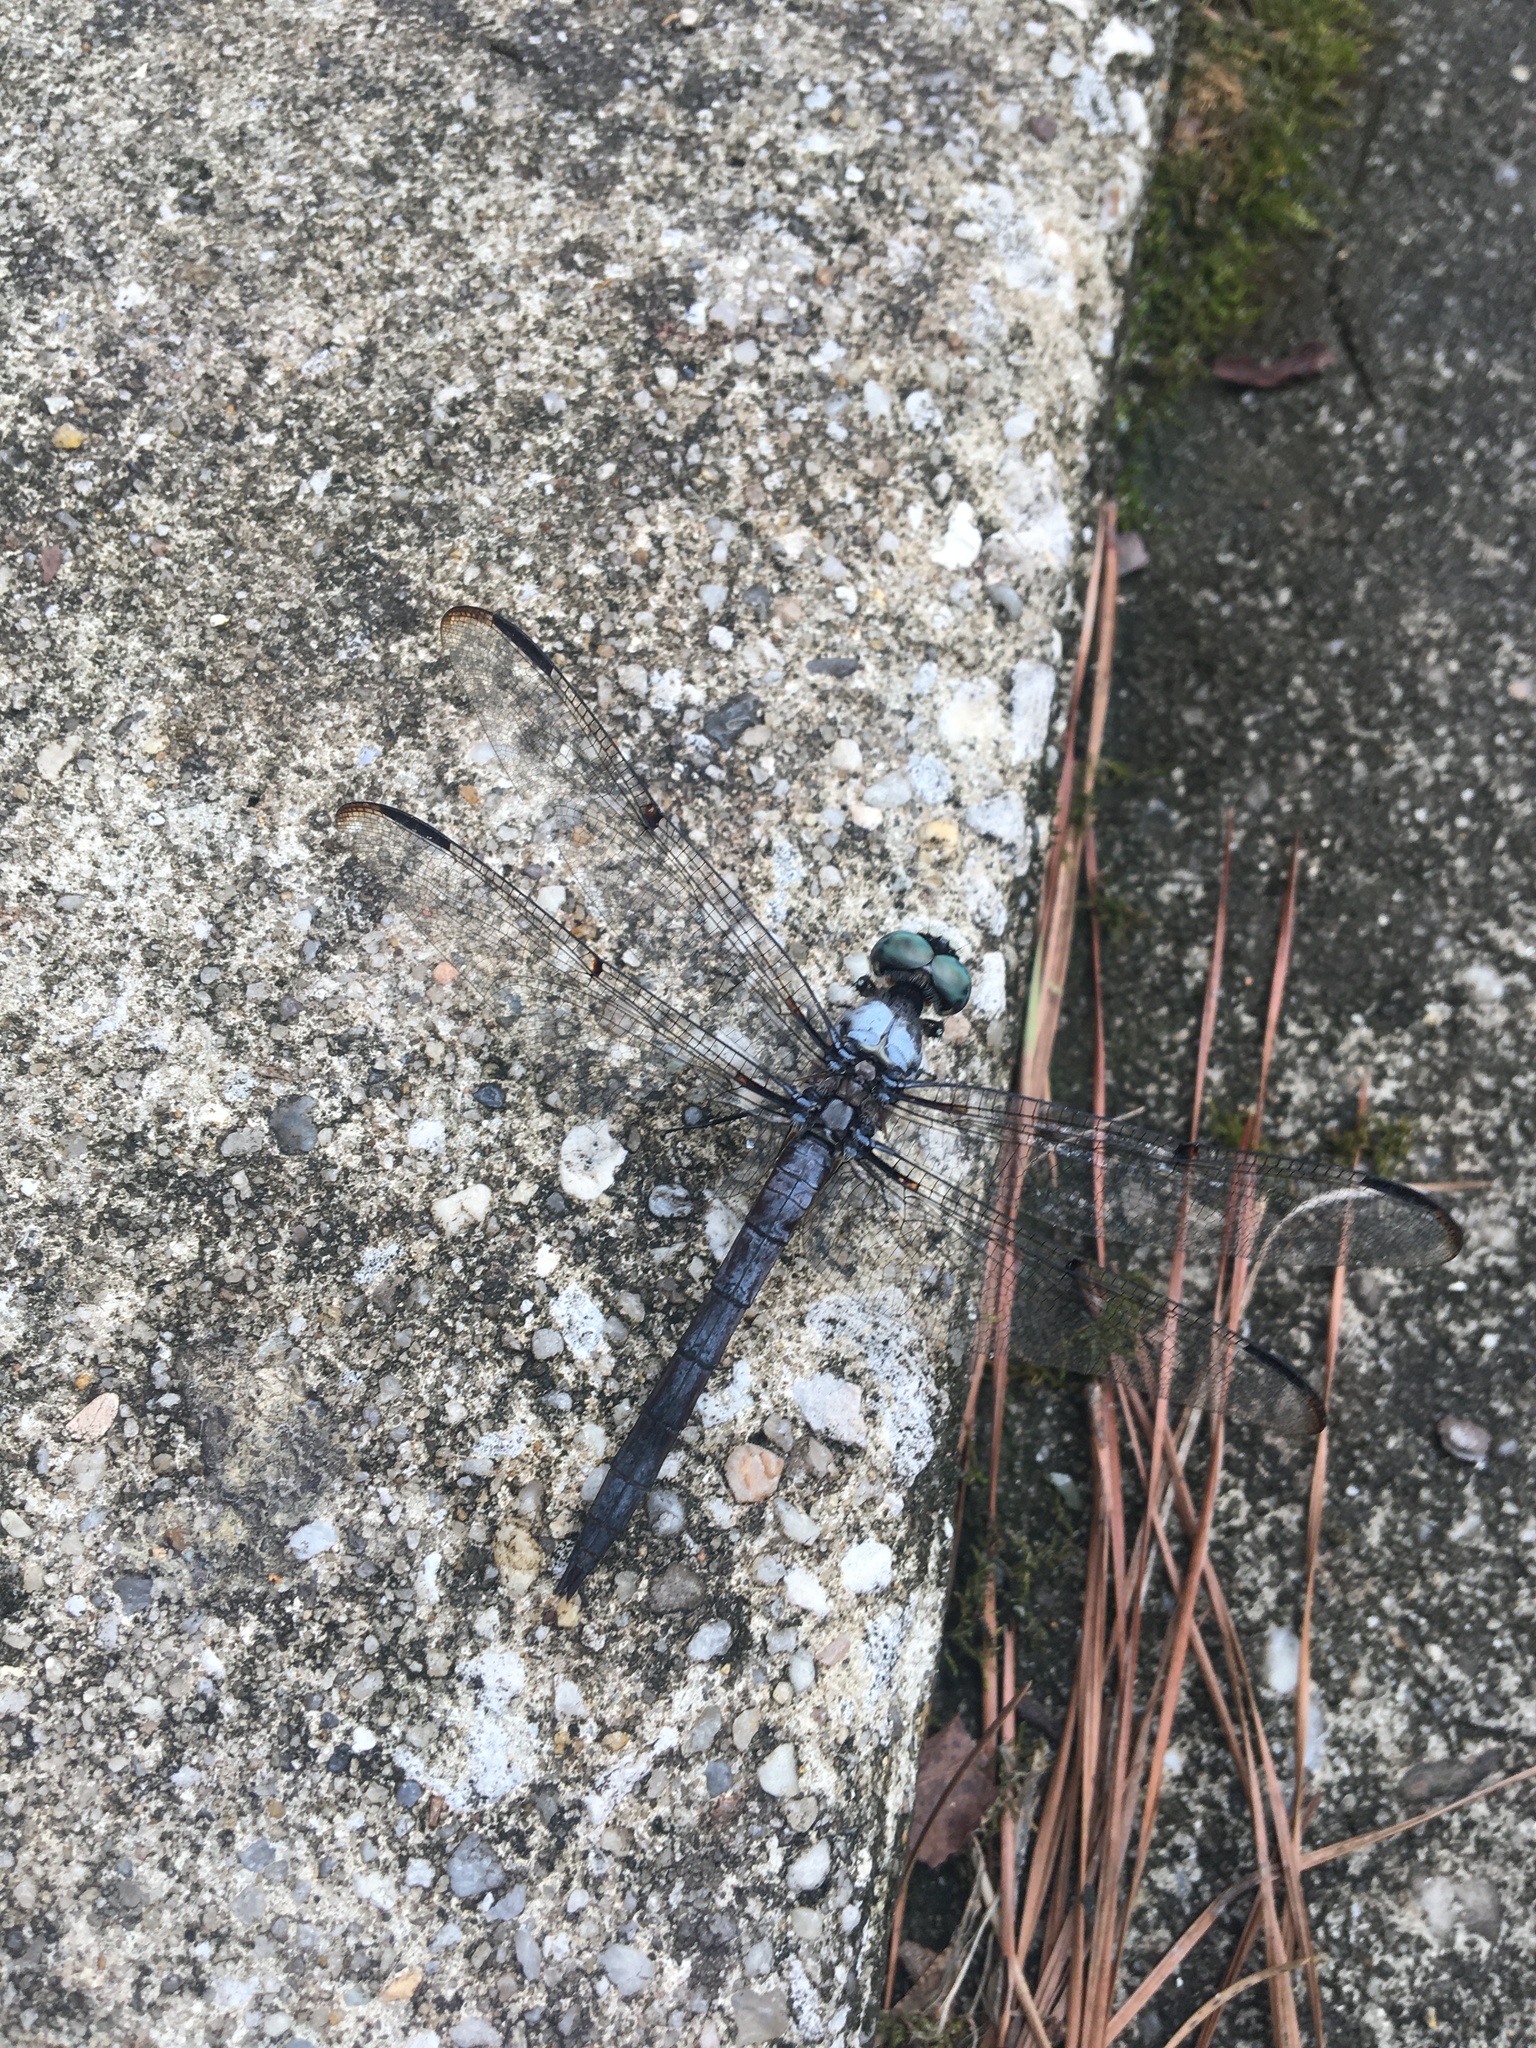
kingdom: Animalia
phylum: Arthropoda
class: Insecta
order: Odonata
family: Libellulidae
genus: Libellula
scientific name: Libellula vibrans
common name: Great blue skimmer
